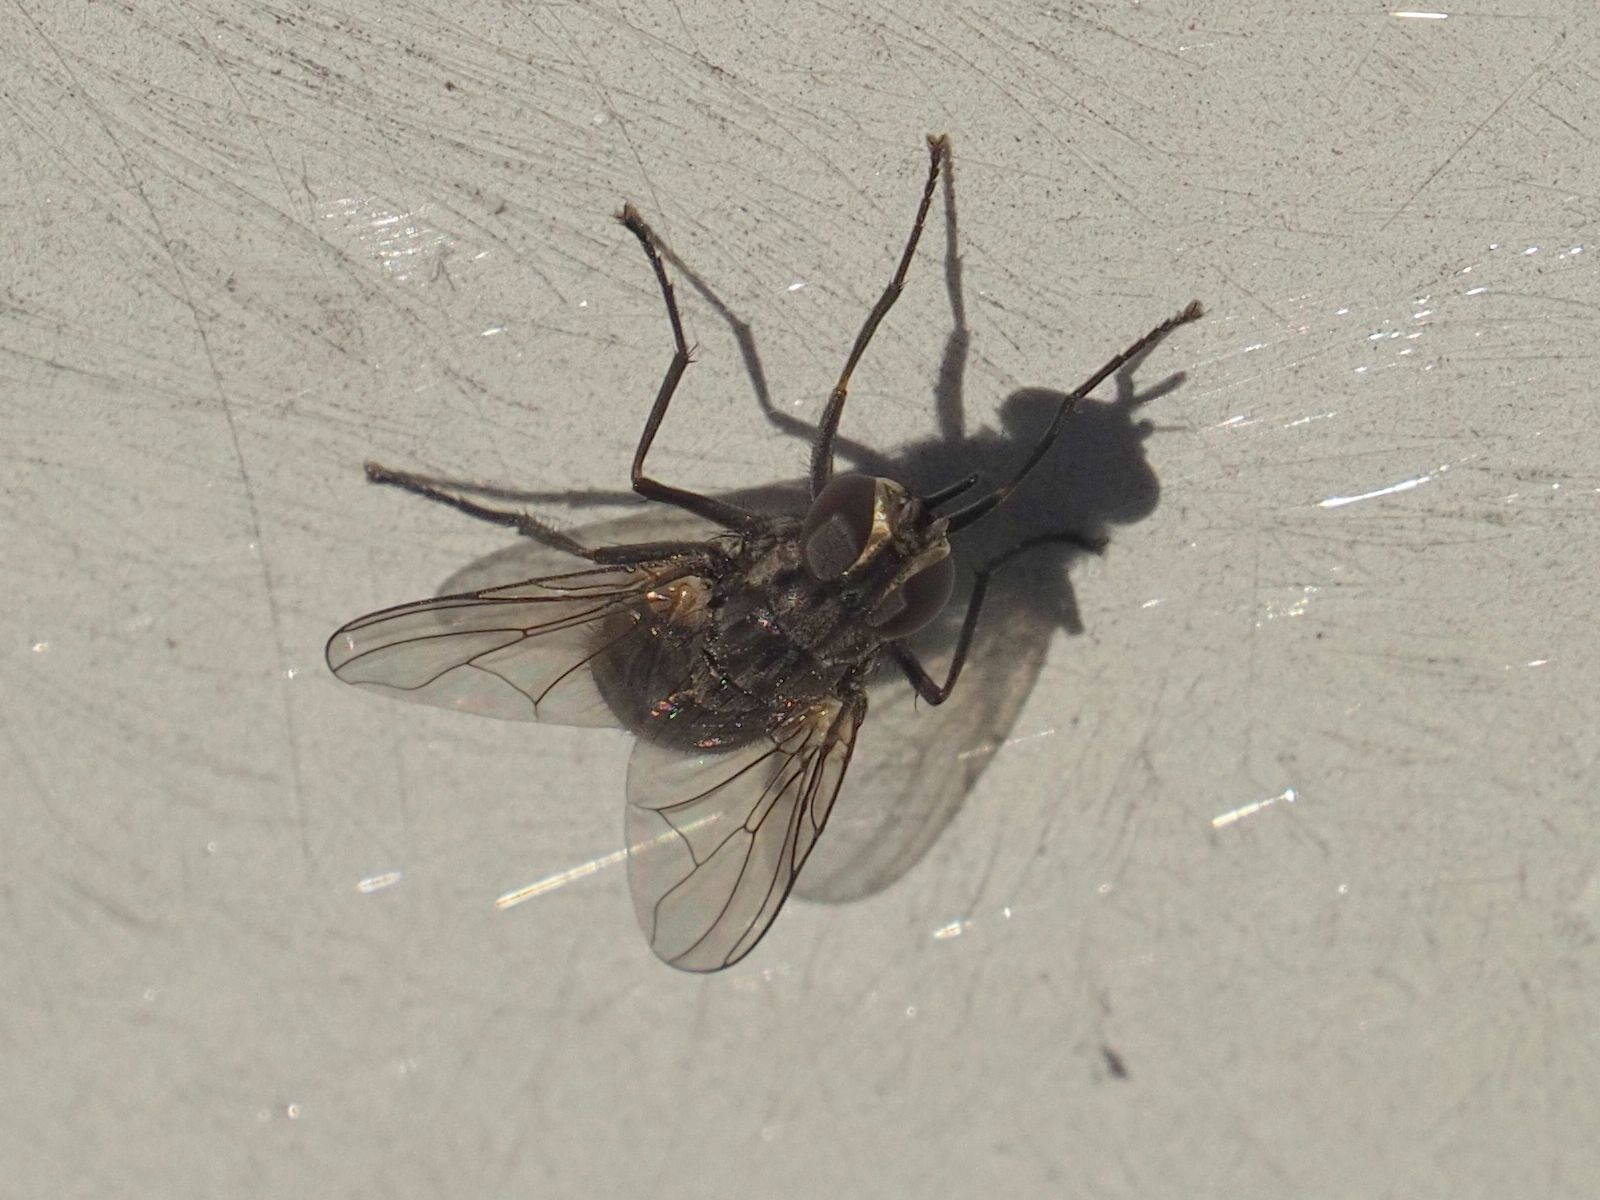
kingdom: Animalia
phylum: Arthropoda
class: Insecta
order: Diptera
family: Muscidae
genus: Stomoxys
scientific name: Stomoxys calcitrans
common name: Stable fly
